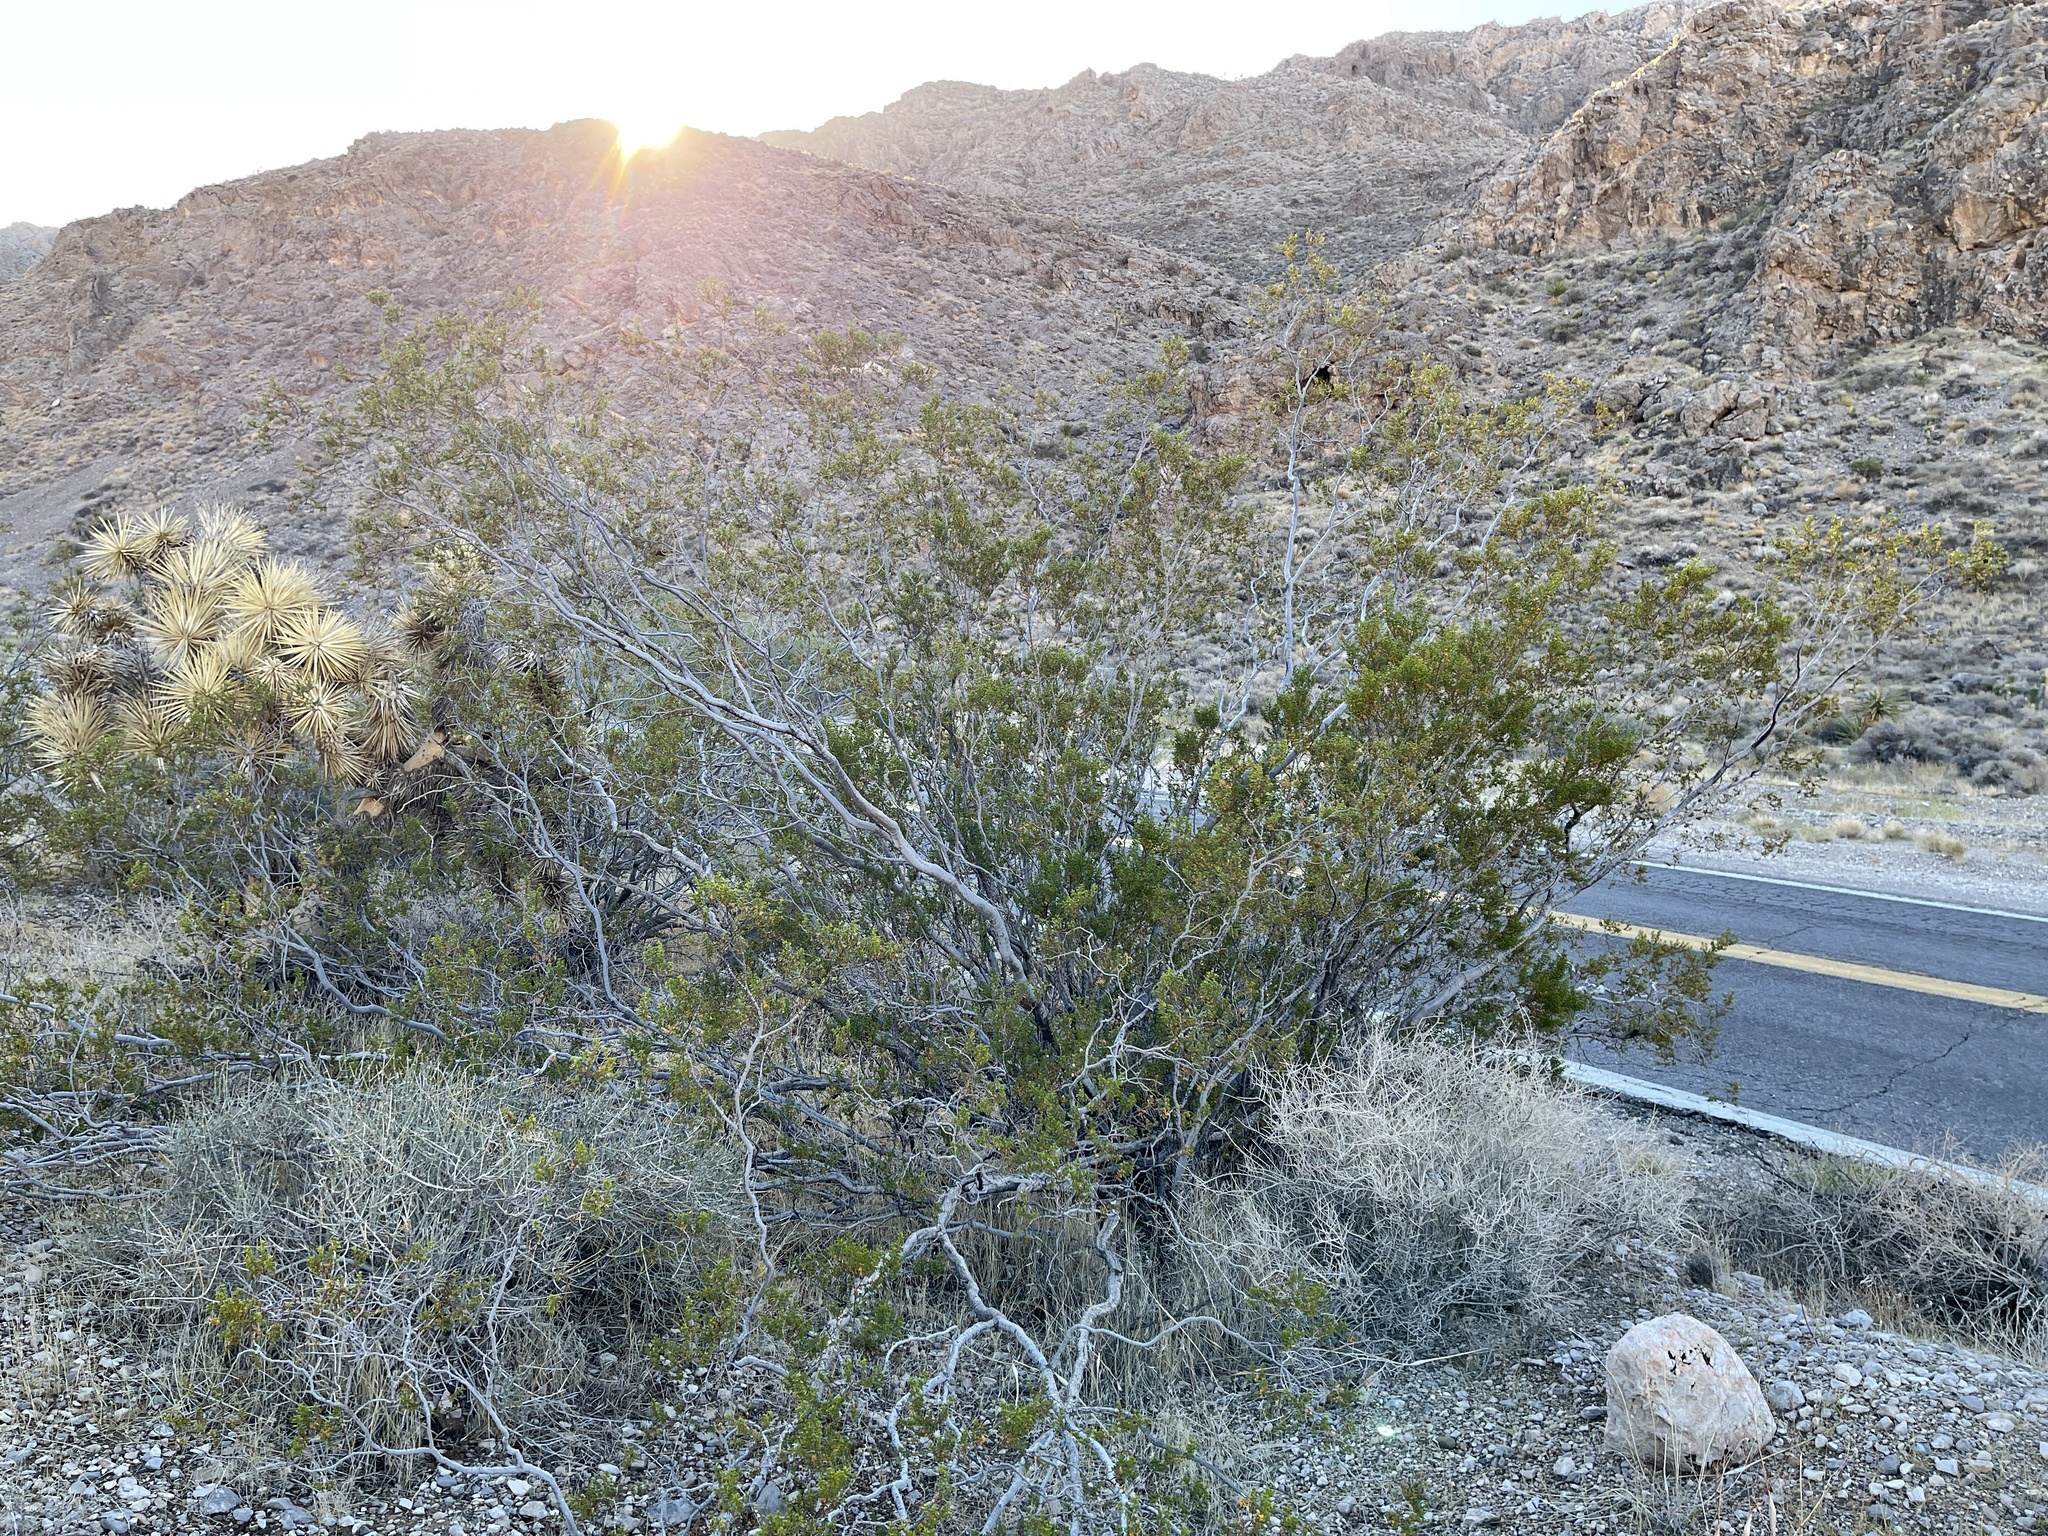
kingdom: Plantae
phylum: Tracheophyta
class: Magnoliopsida
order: Zygophyllales
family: Zygophyllaceae
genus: Larrea
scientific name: Larrea tridentata
